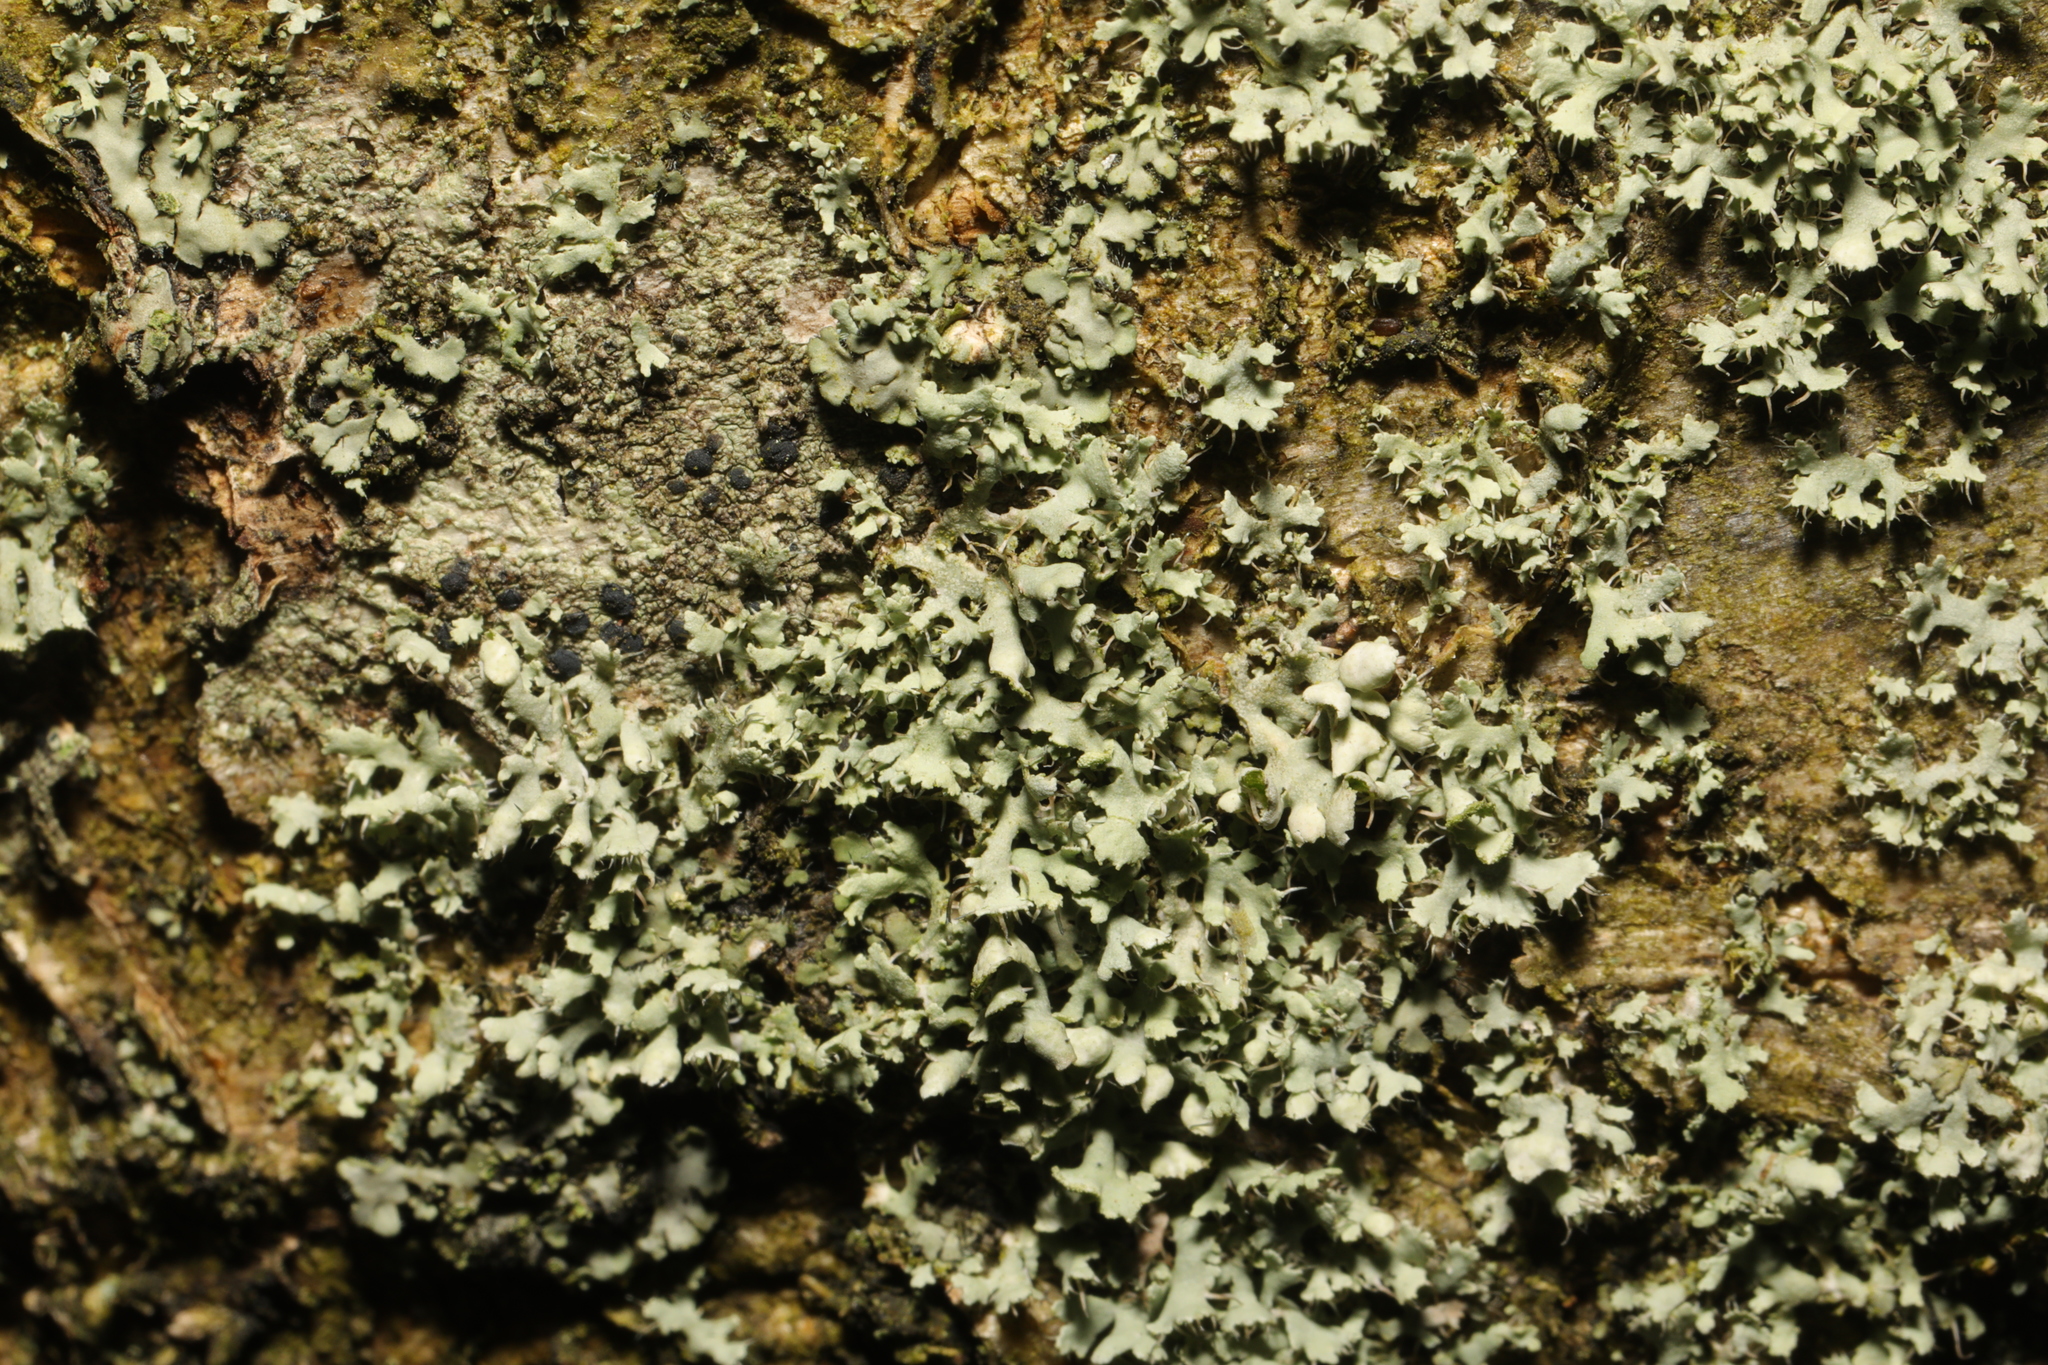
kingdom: Fungi
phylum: Ascomycota
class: Lecanoromycetes
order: Caliciales
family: Physciaceae
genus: Physcia
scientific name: Physcia adscendens
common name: Hooded rosette lichen
